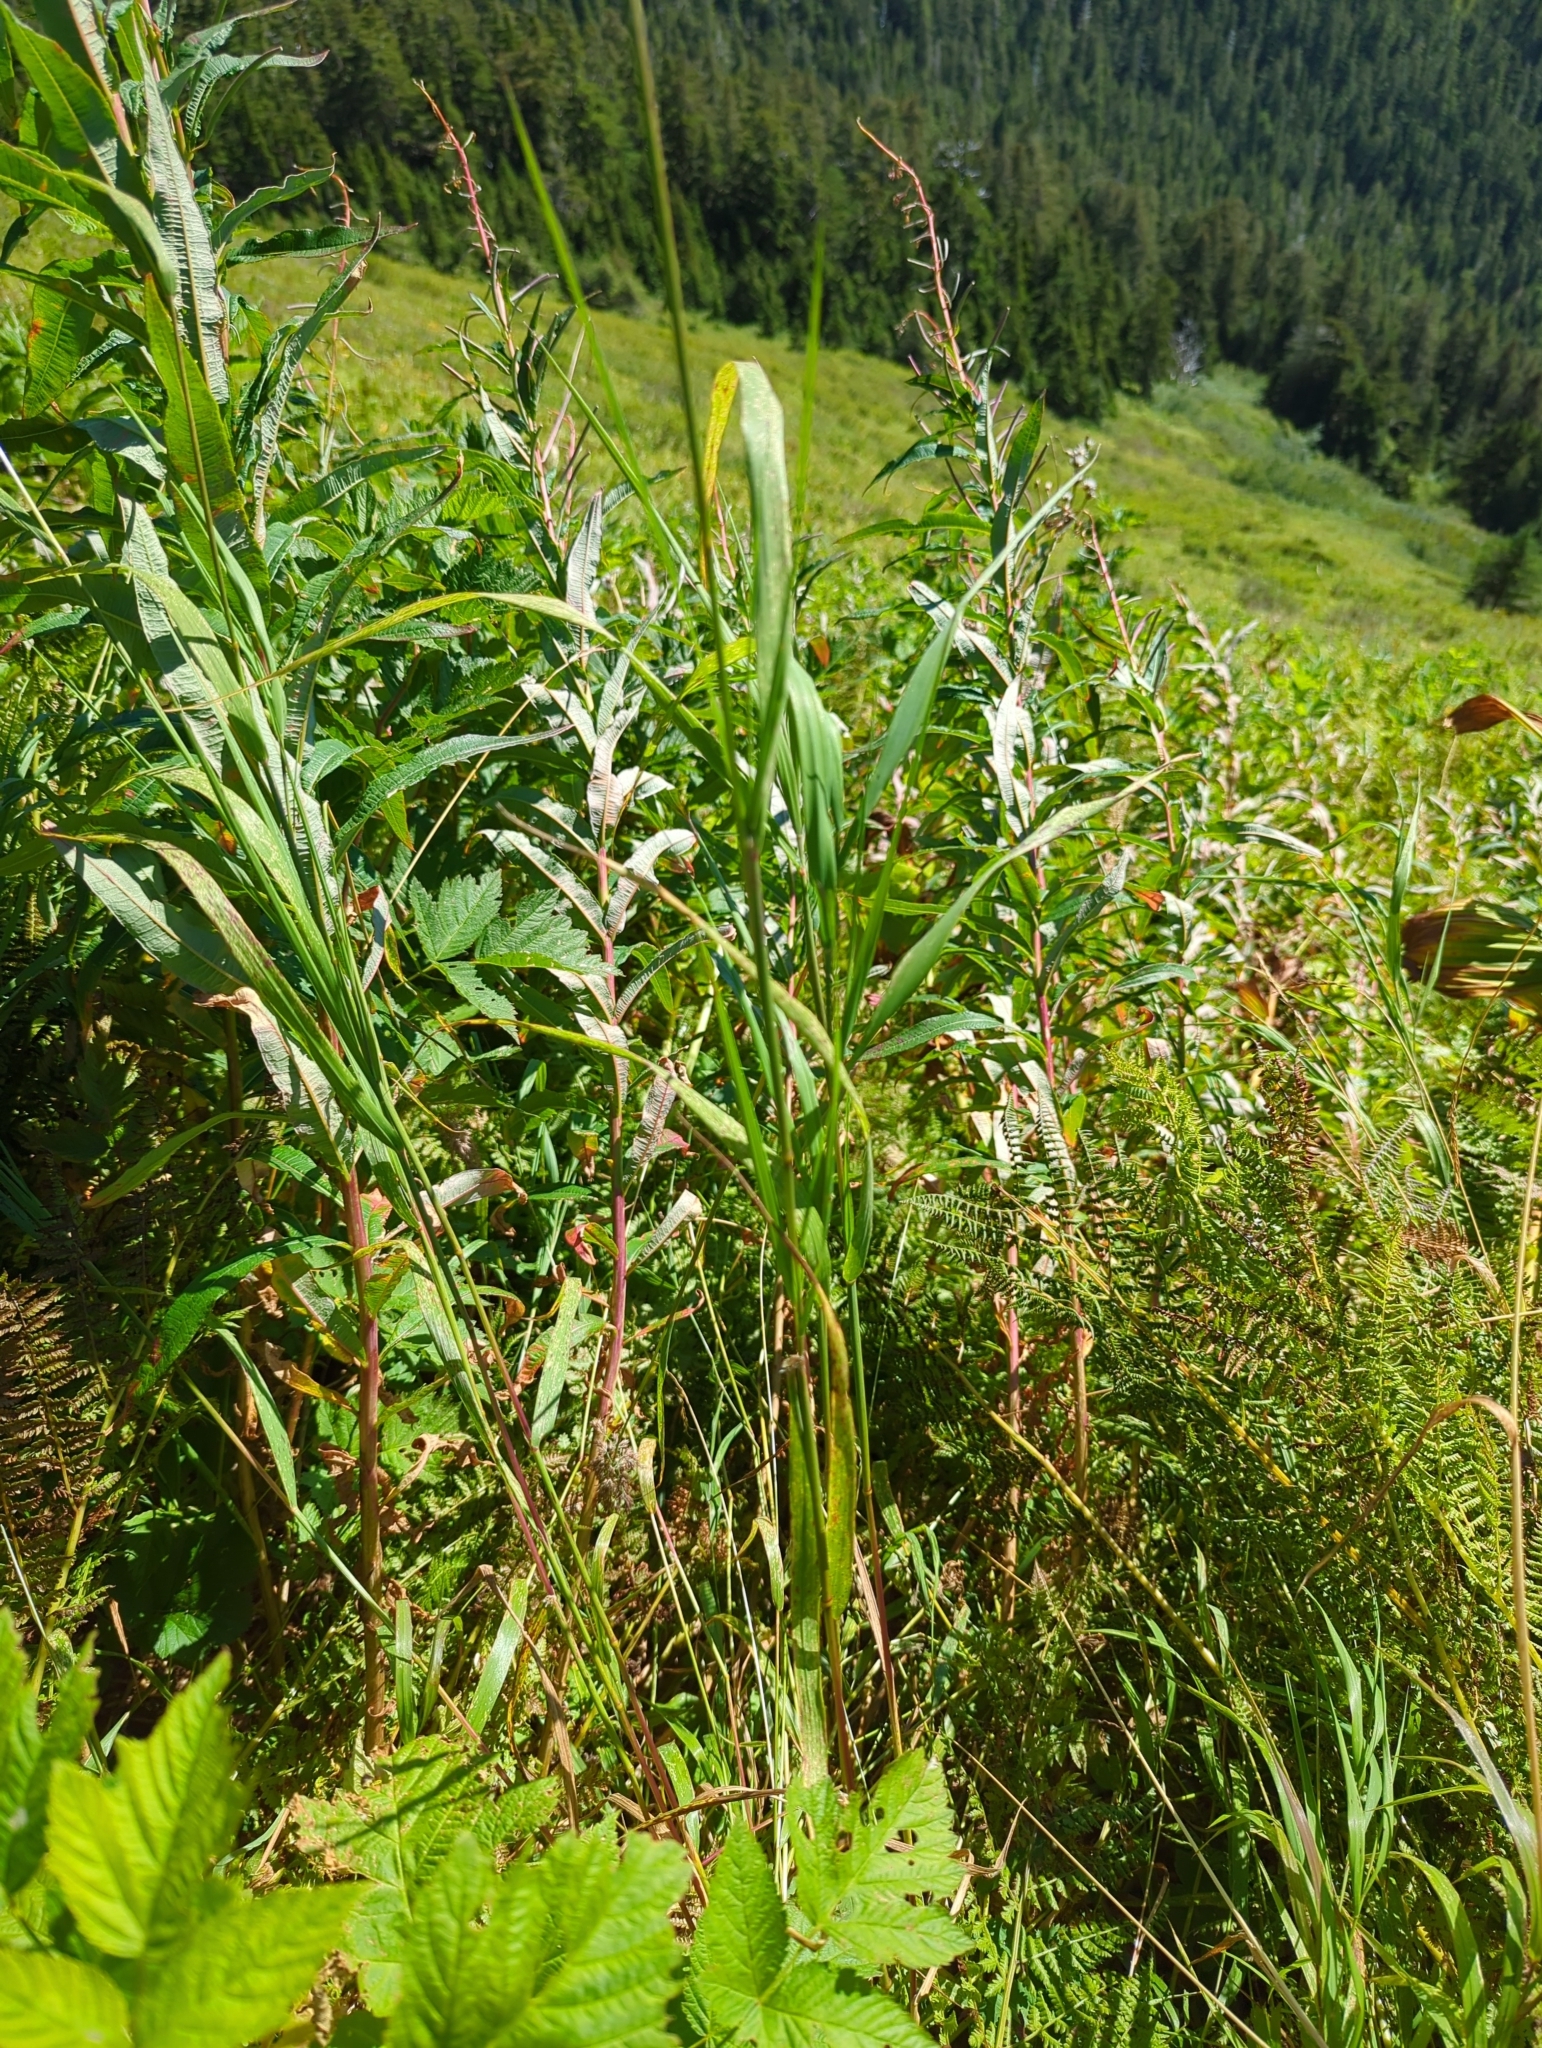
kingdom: Plantae
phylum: Tracheophyta
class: Liliopsida
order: Poales
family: Poaceae
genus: Calamagrostis
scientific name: Calamagrostis canadensis
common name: Canada bluejoint
